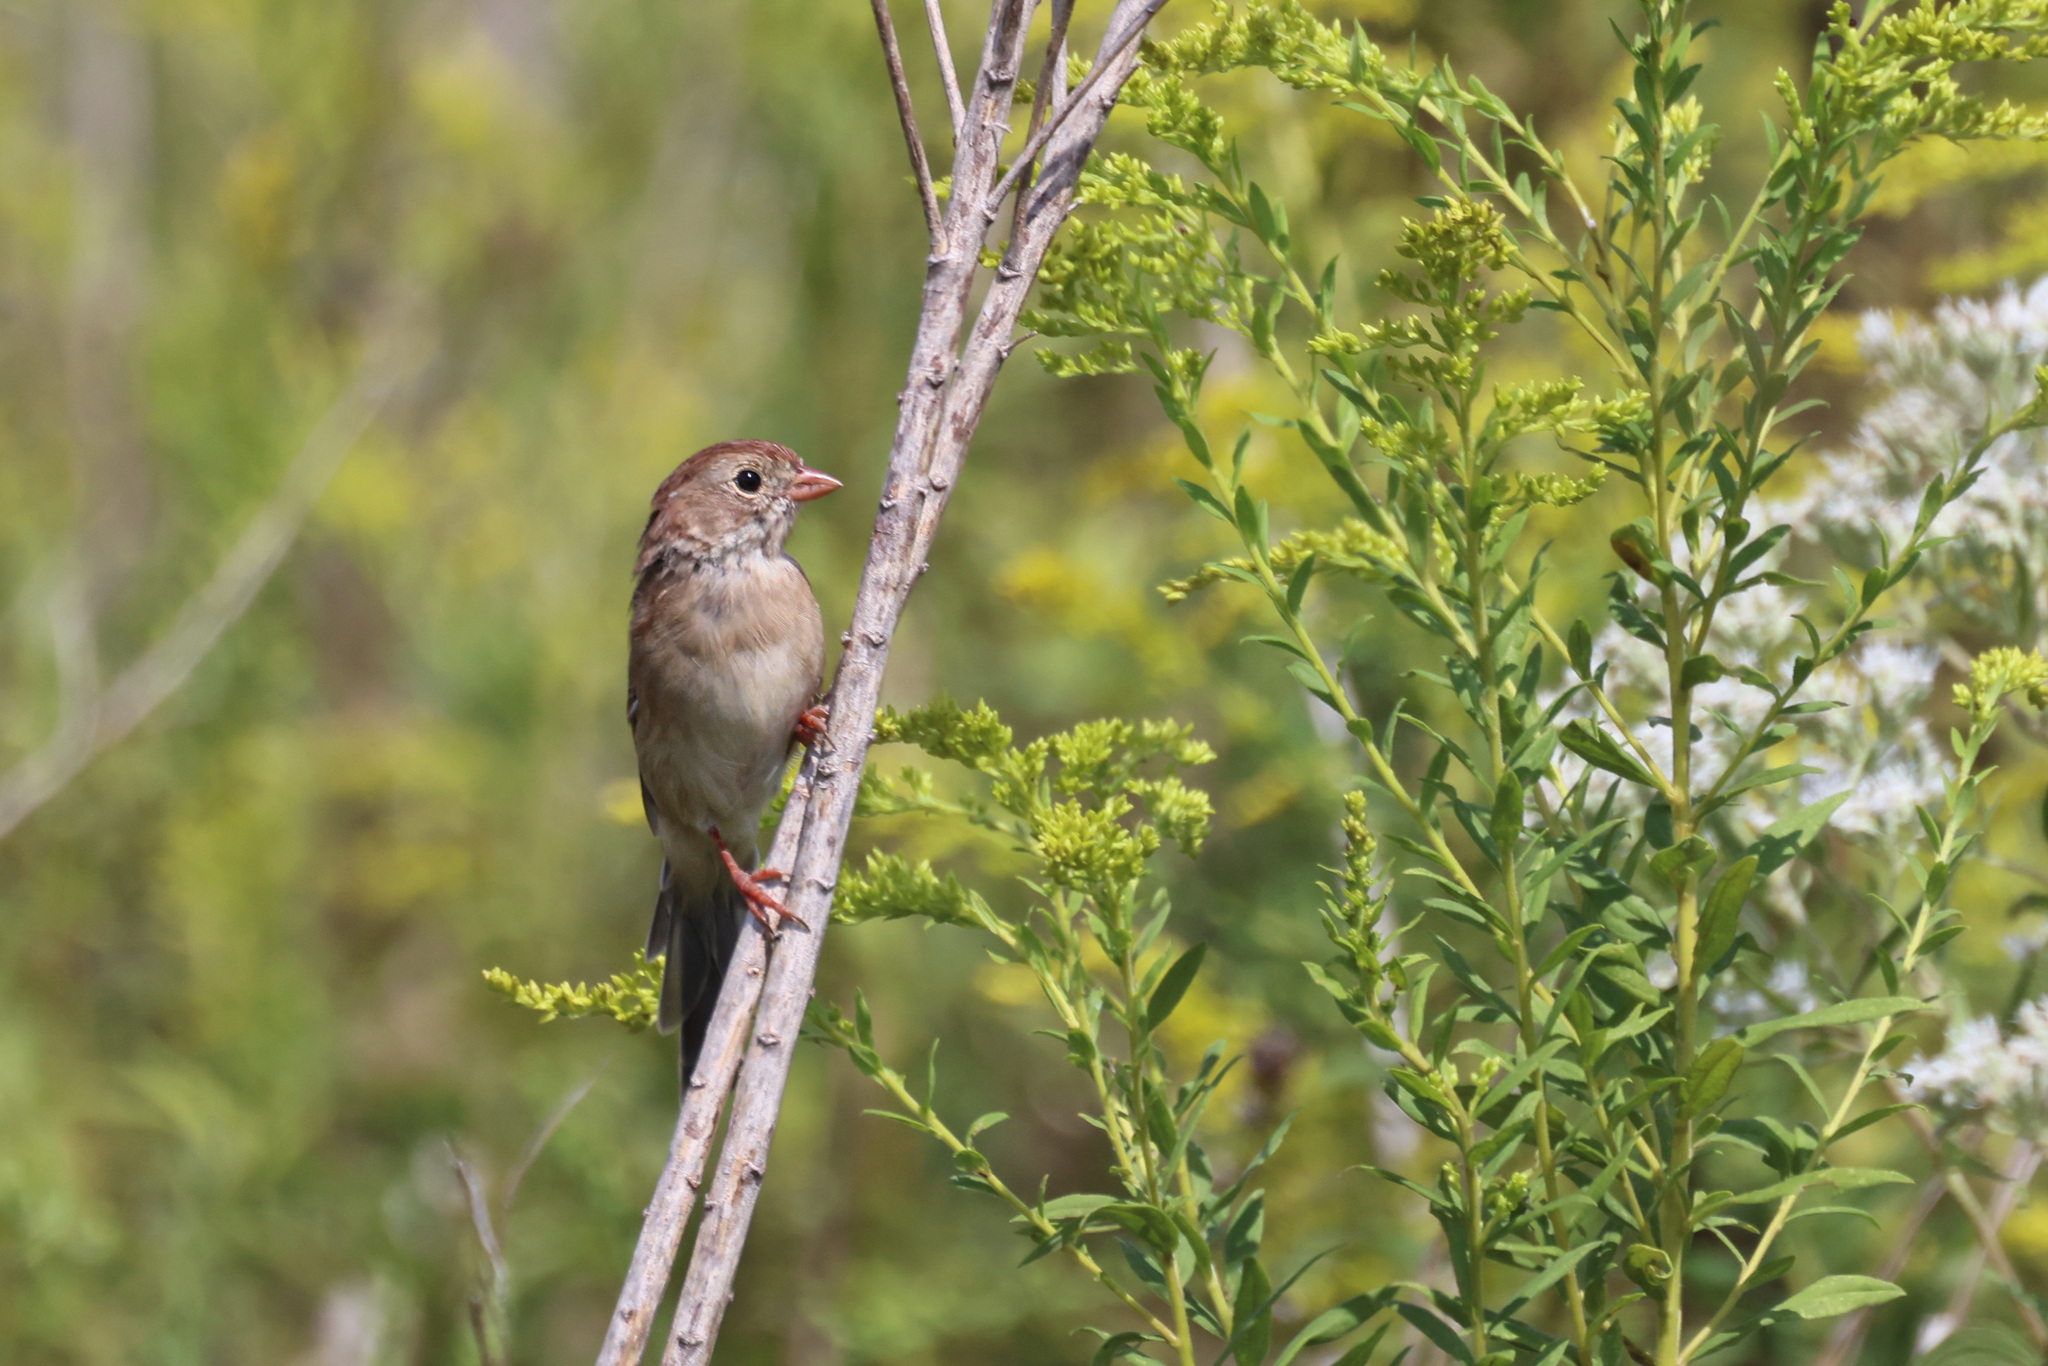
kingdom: Animalia
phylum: Chordata
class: Aves
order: Passeriformes
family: Passerellidae
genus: Spizella
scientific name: Spizella pusilla
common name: Field sparrow
